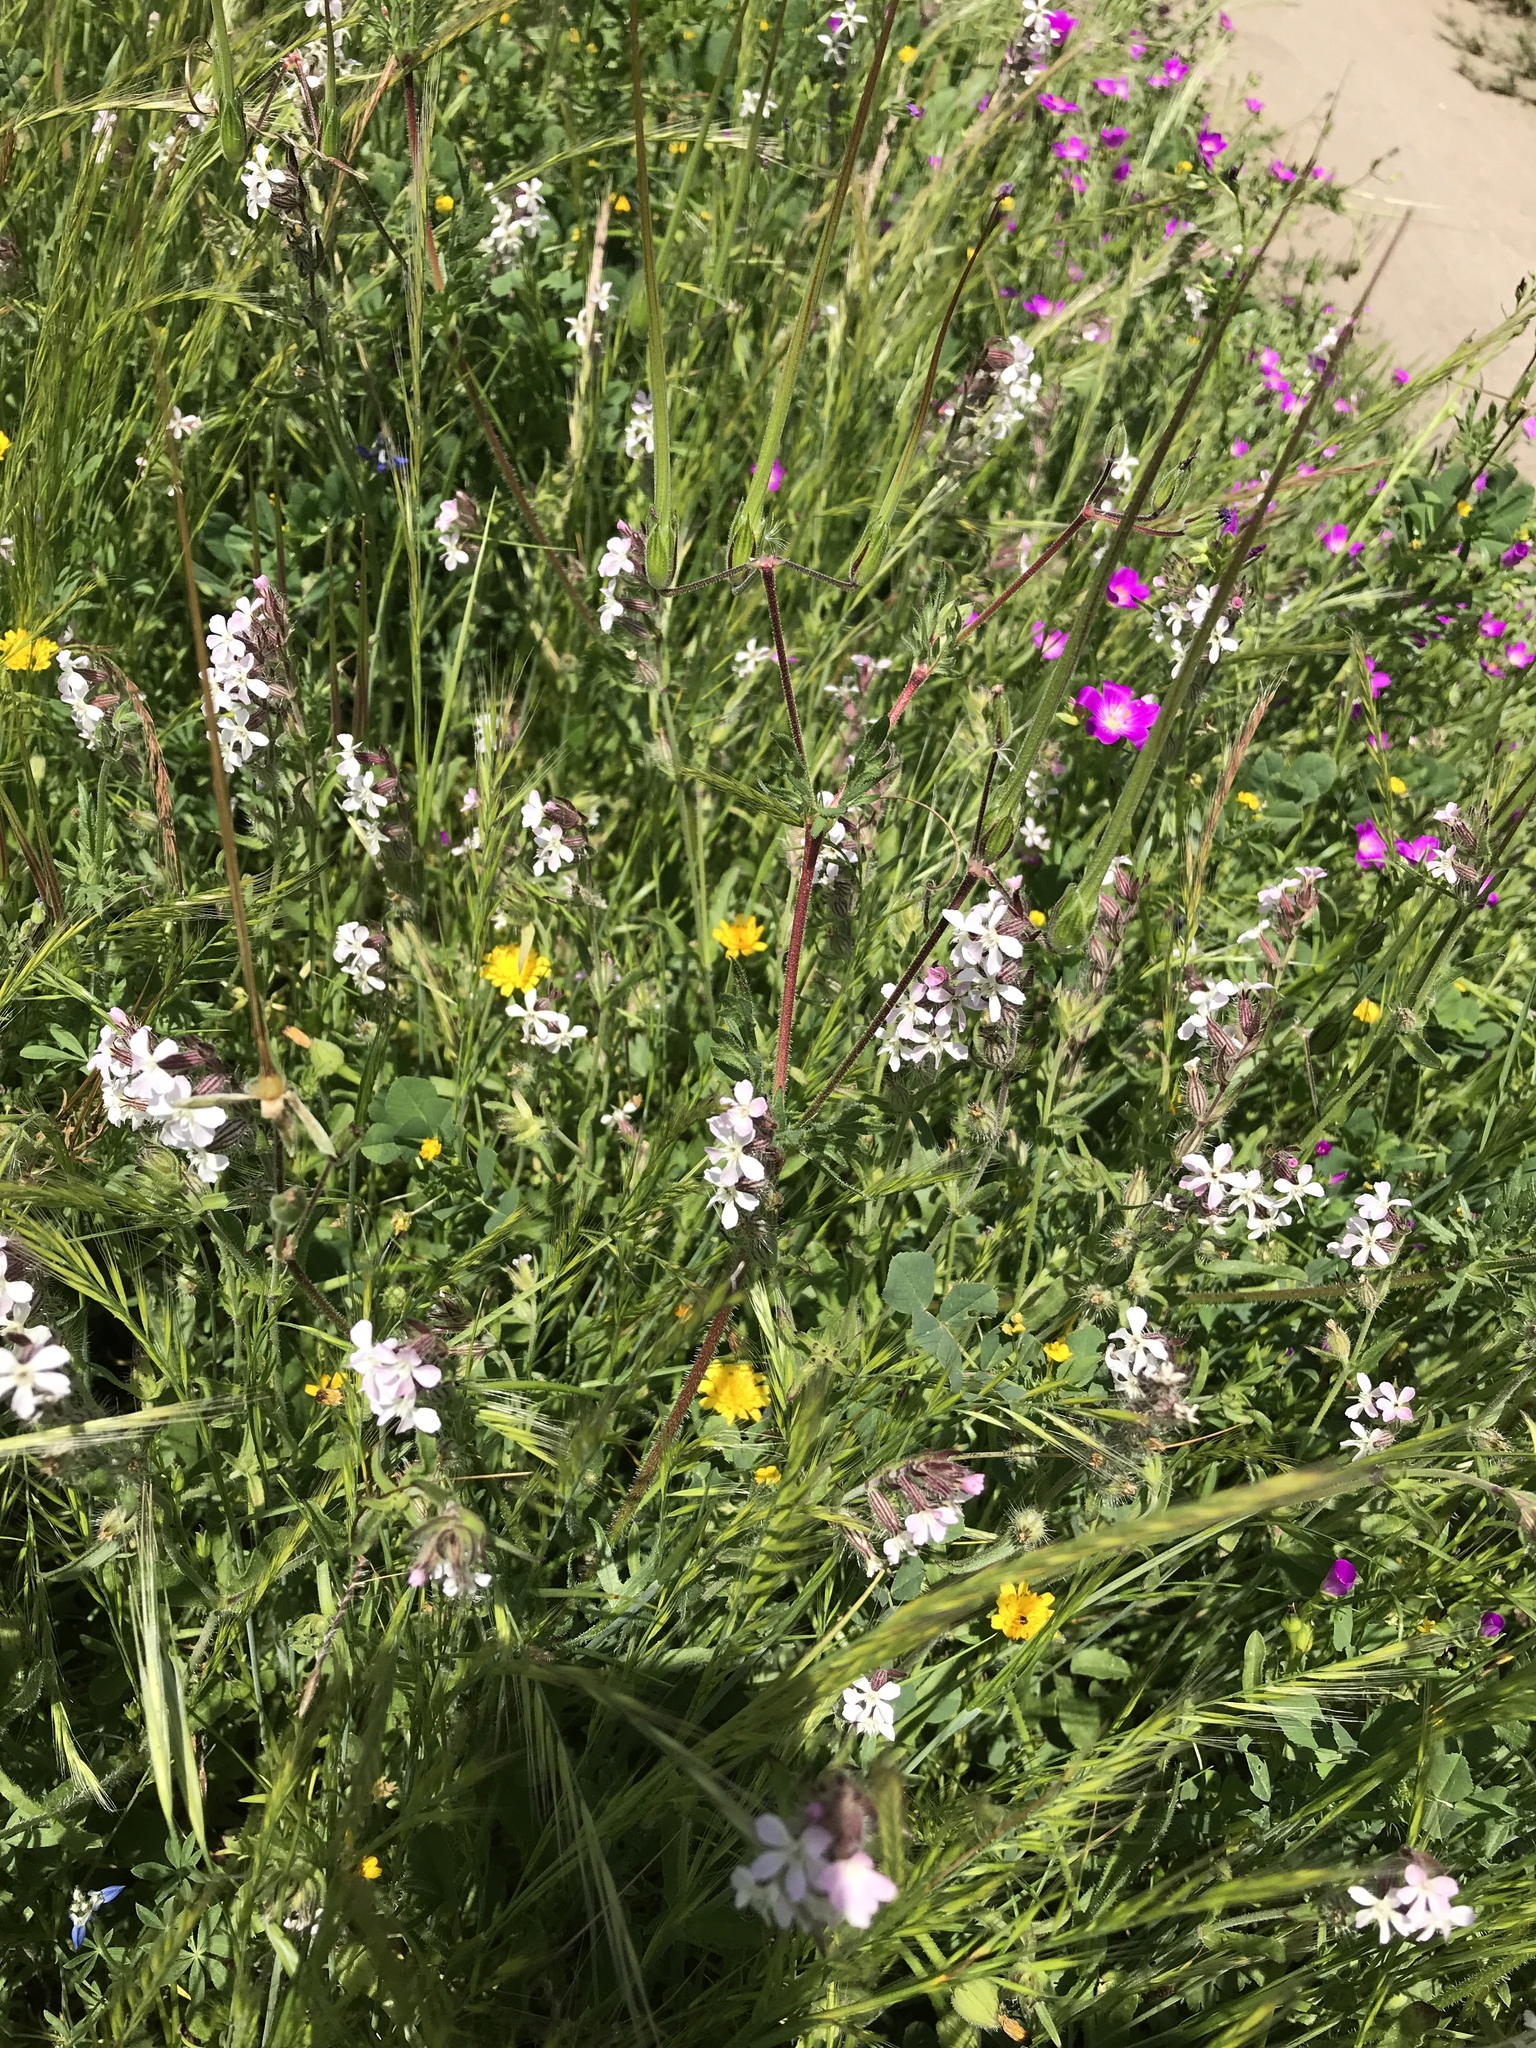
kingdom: Plantae
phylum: Tracheophyta
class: Magnoliopsida
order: Caryophyllales
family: Caryophyllaceae
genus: Silene
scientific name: Silene gallica
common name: Small-flowered catchfly
